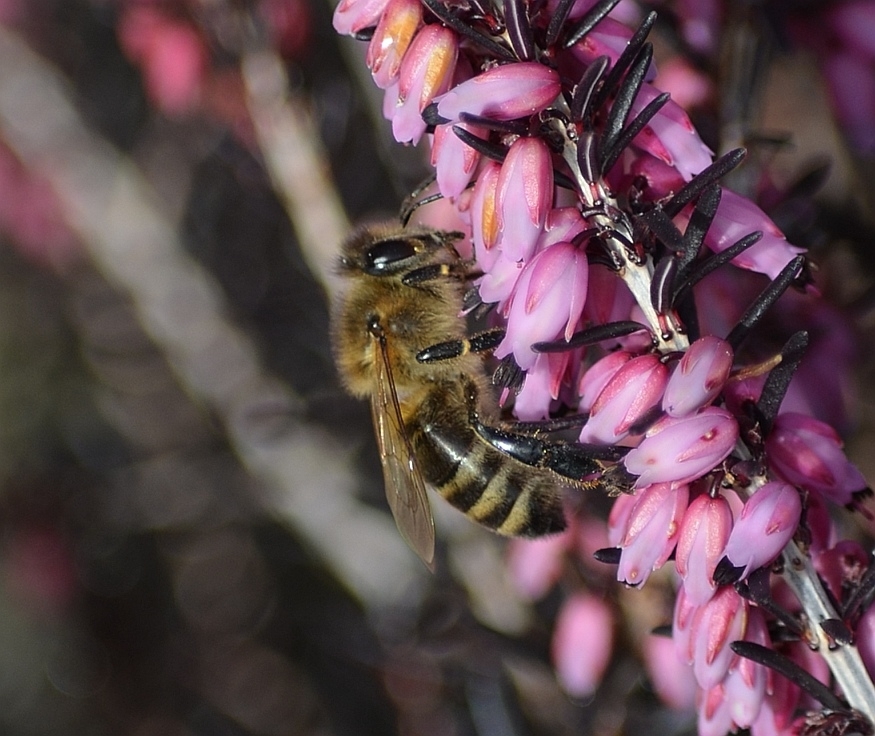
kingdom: Animalia
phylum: Arthropoda
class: Insecta
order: Hymenoptera
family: Apidae
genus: Apis
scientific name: Apis mellifera
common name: Honey bee
